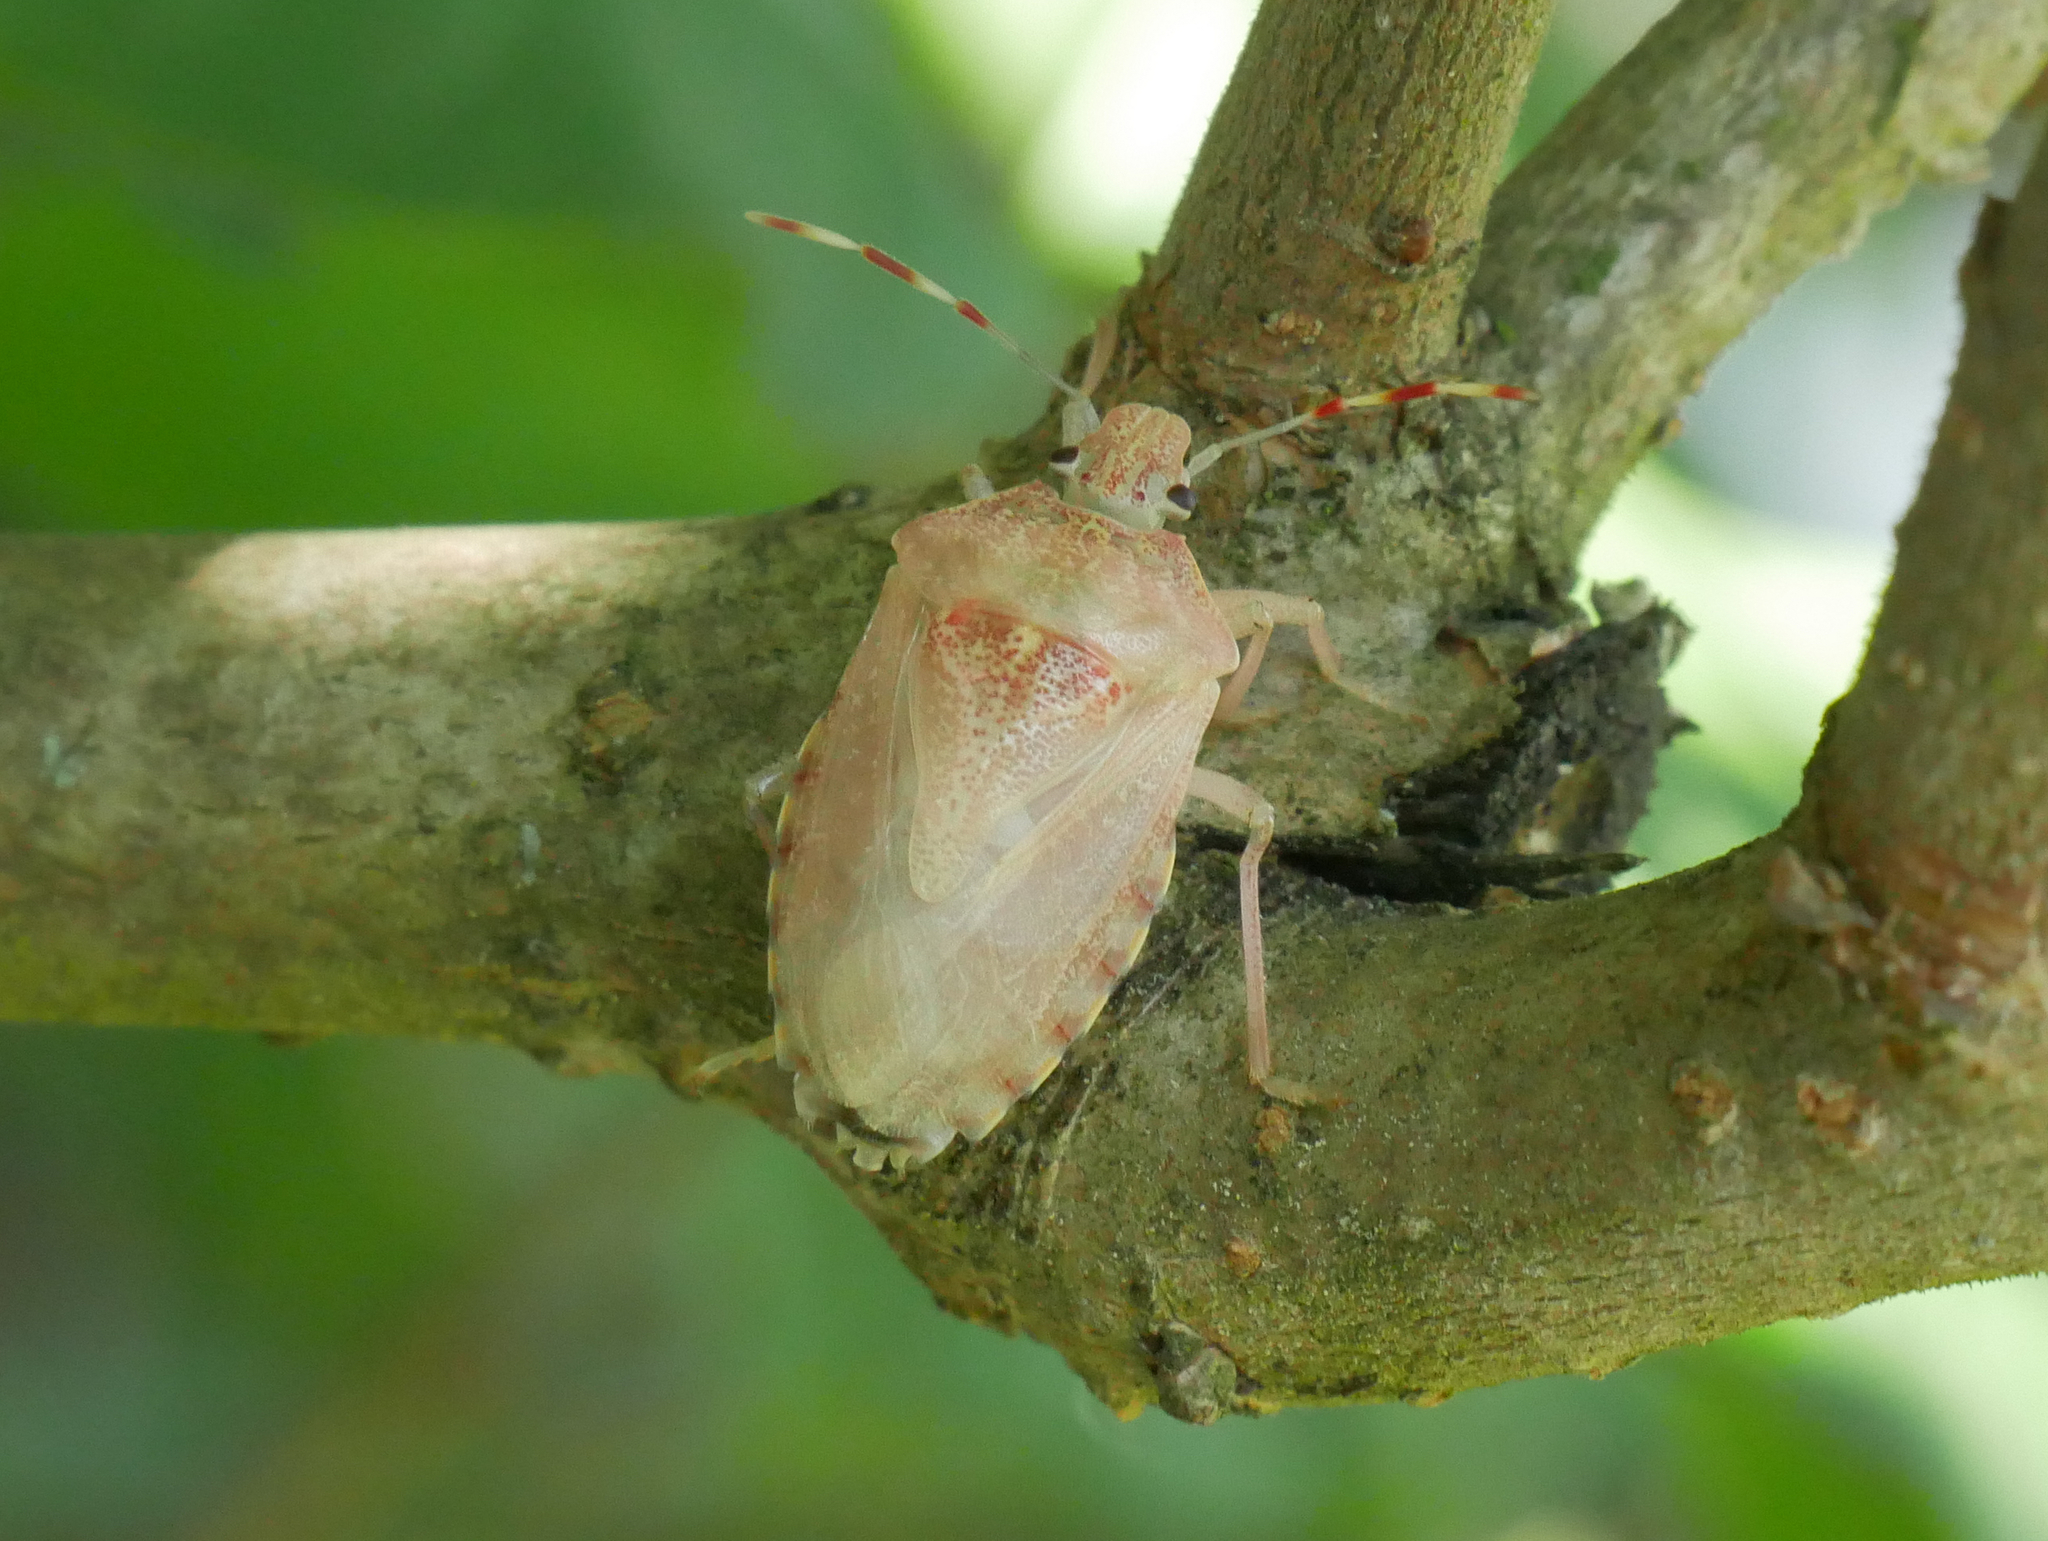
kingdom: Animalia
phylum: Arthropoda
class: Insecta
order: Hemiptera
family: Pentatomidae
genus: Rhaphigaster
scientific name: Rhaphigaster nebulosa
